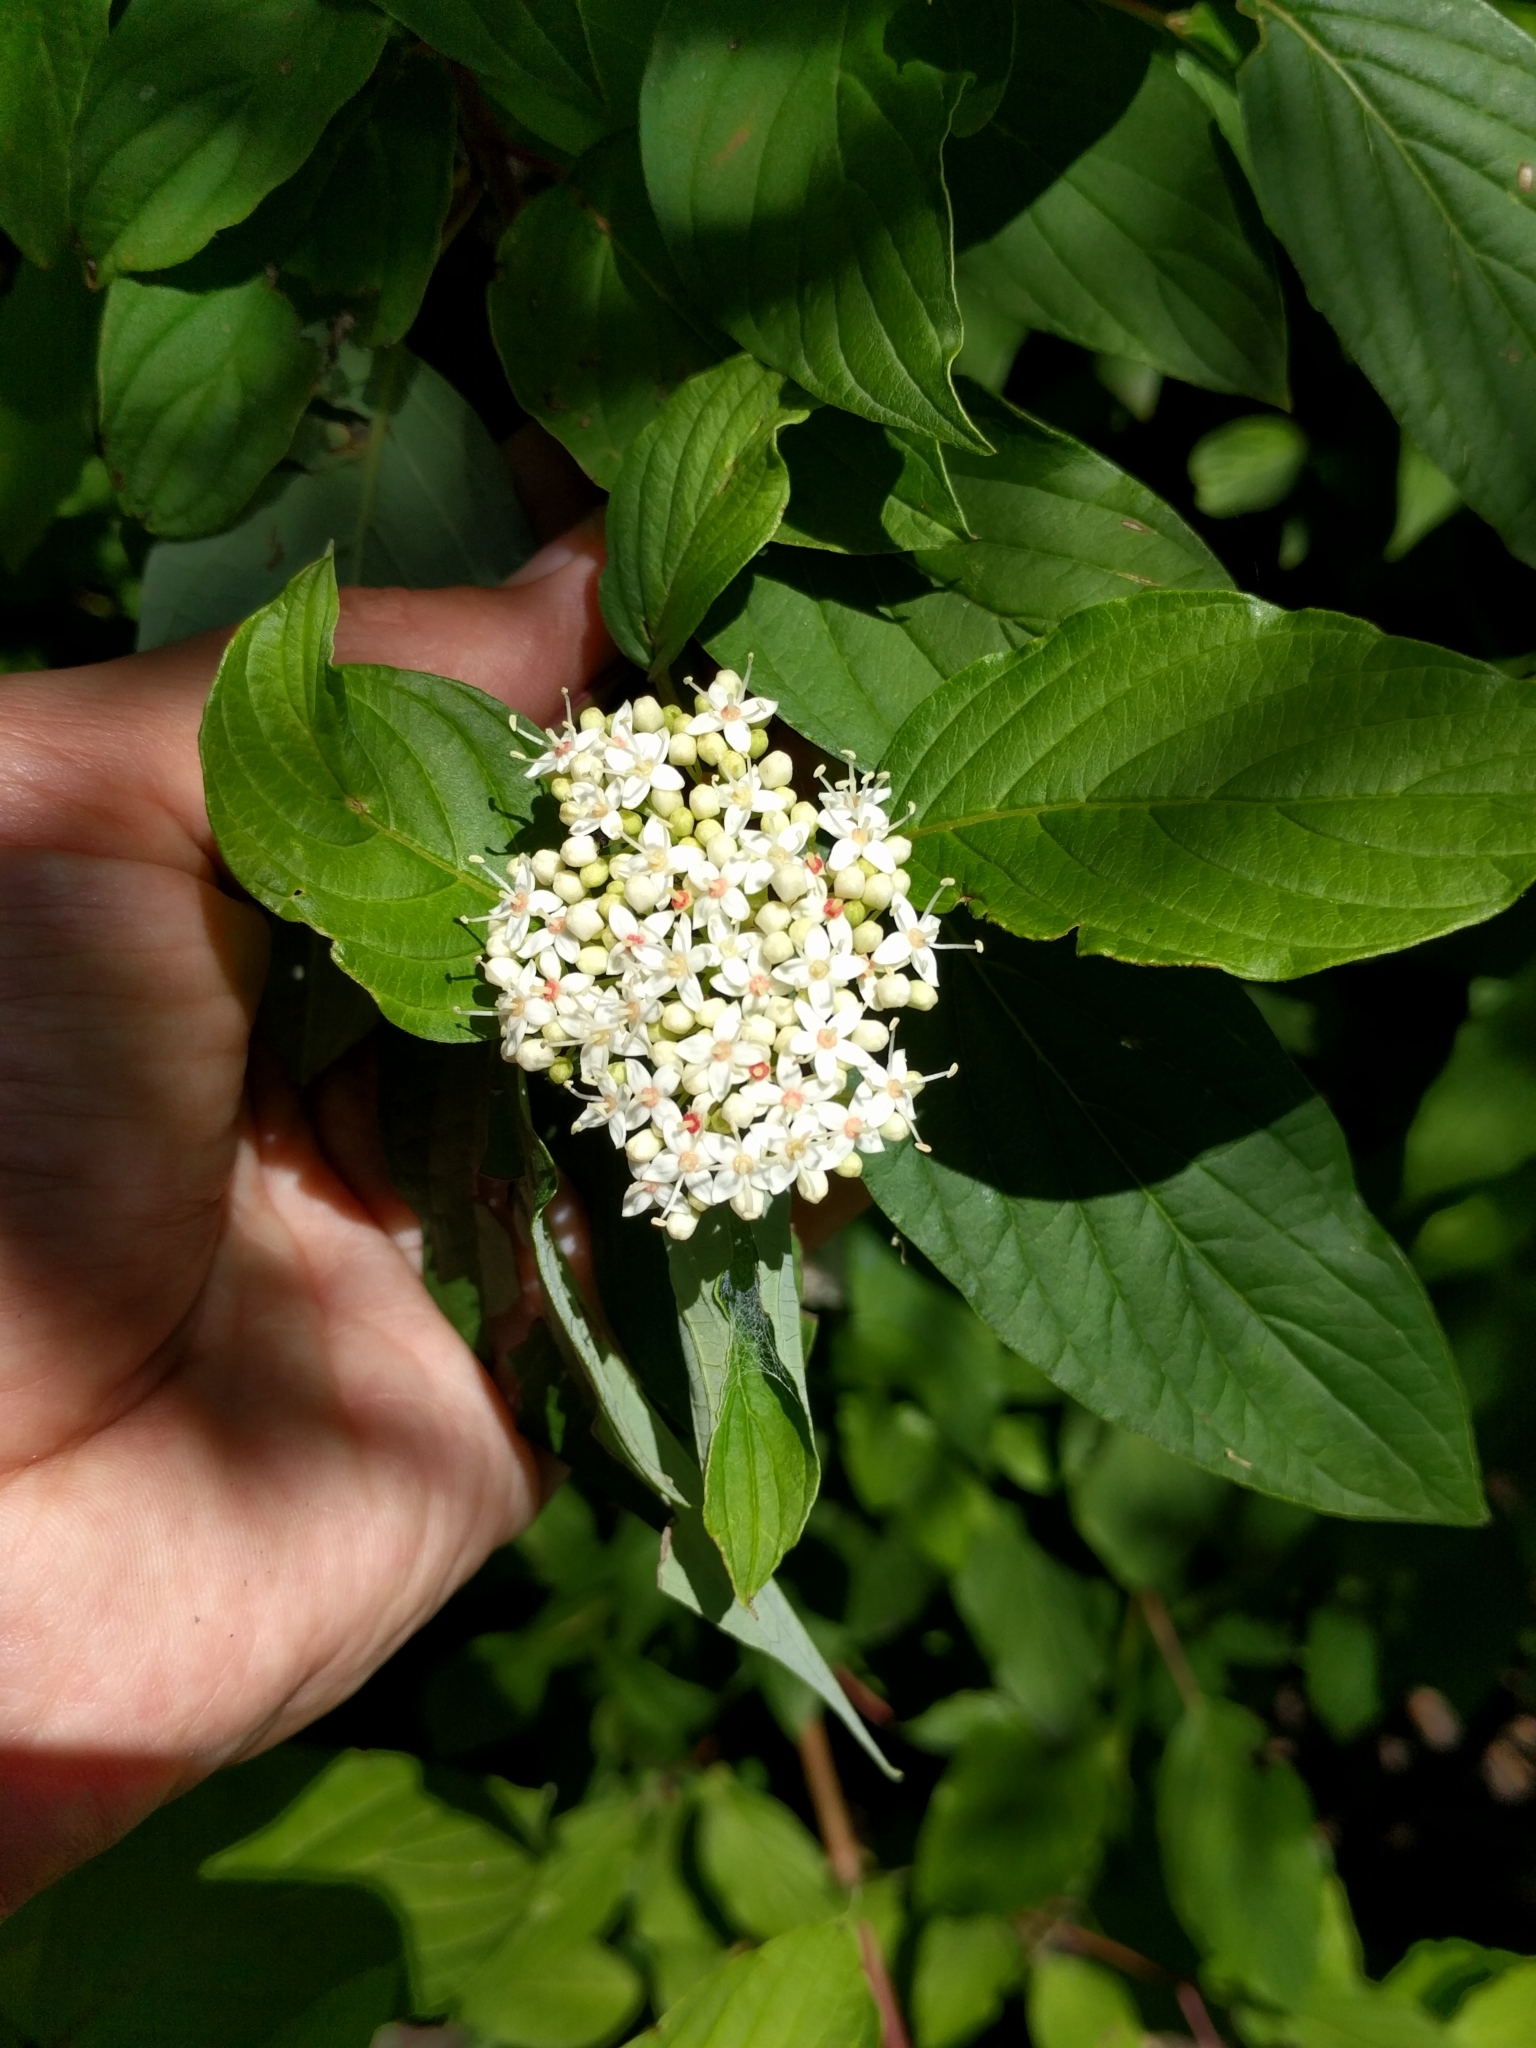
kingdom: Plantae
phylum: Tracheophyta
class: Magnoliopsida
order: Cornales
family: Cornaceae
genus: Cornus
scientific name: Cornus sericea
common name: Red-osier dogwood
